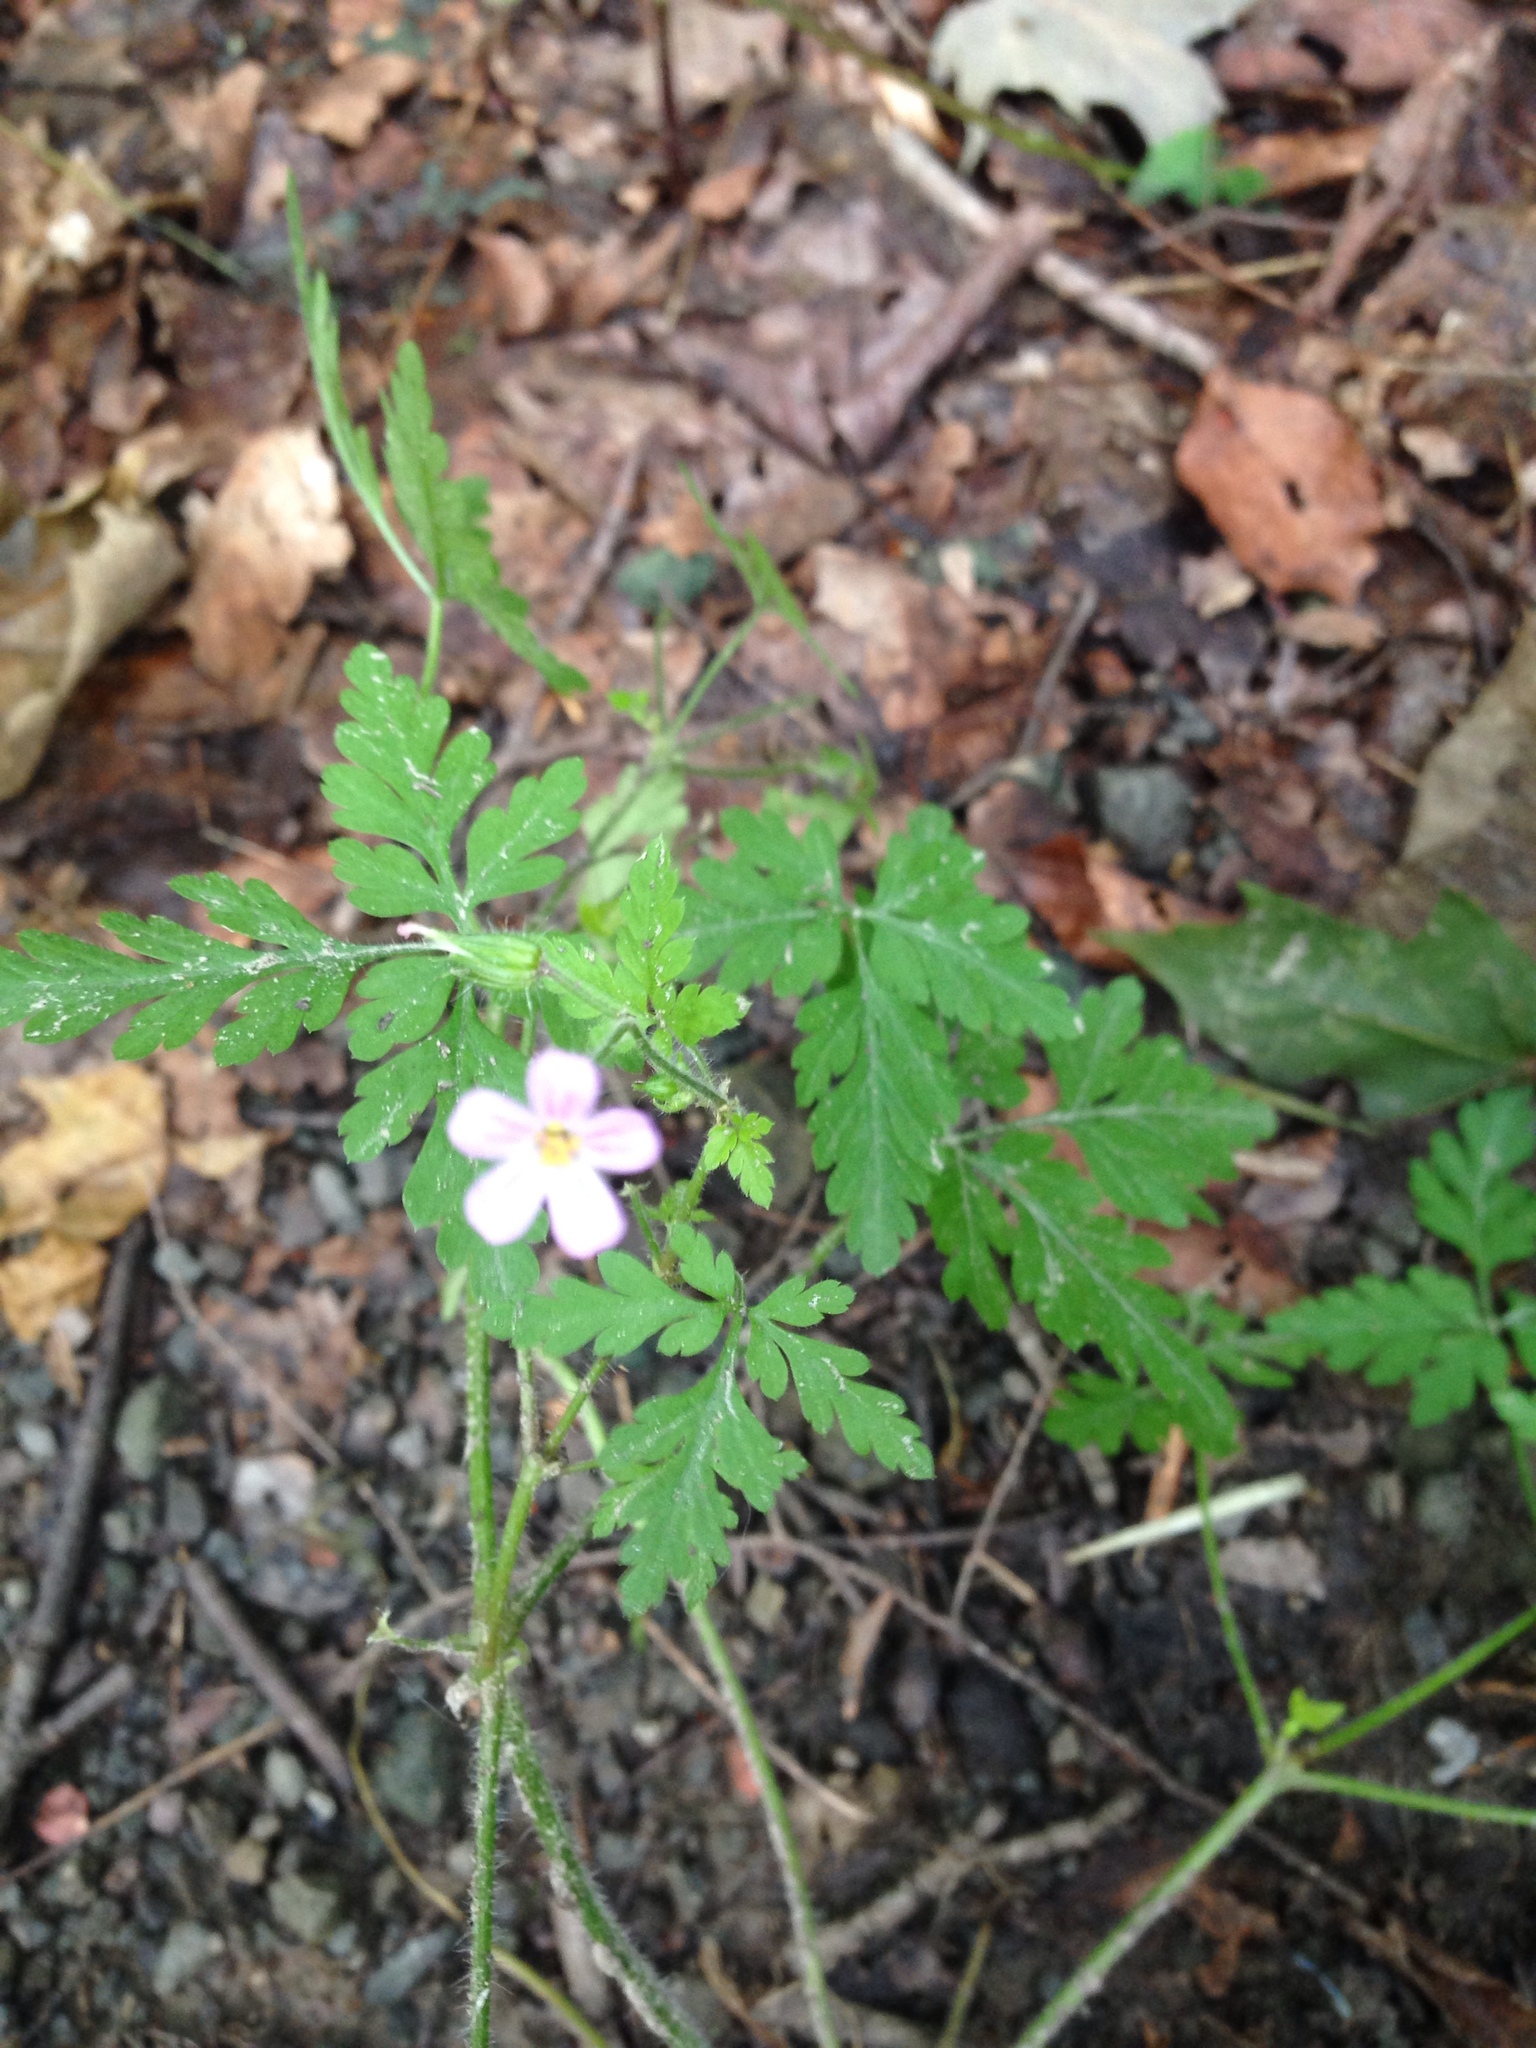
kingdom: Plantae
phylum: Tracheophyta
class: Magnoliopsida
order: Geraniales
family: Geraniaceae
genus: Geranium
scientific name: Geranium robertianum
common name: Herb-robert
